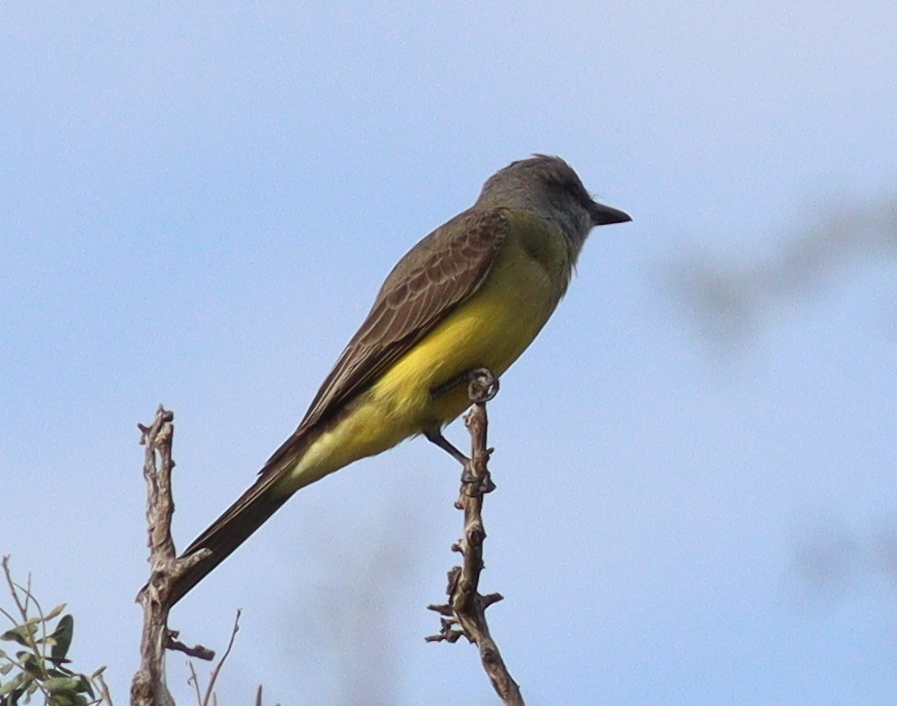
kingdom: Animalia
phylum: Chordata
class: Aves
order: Passeriformes
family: Tyrannidae
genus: Tyrannus
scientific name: Tyrannus melancholicus
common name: Tropical kingbird
